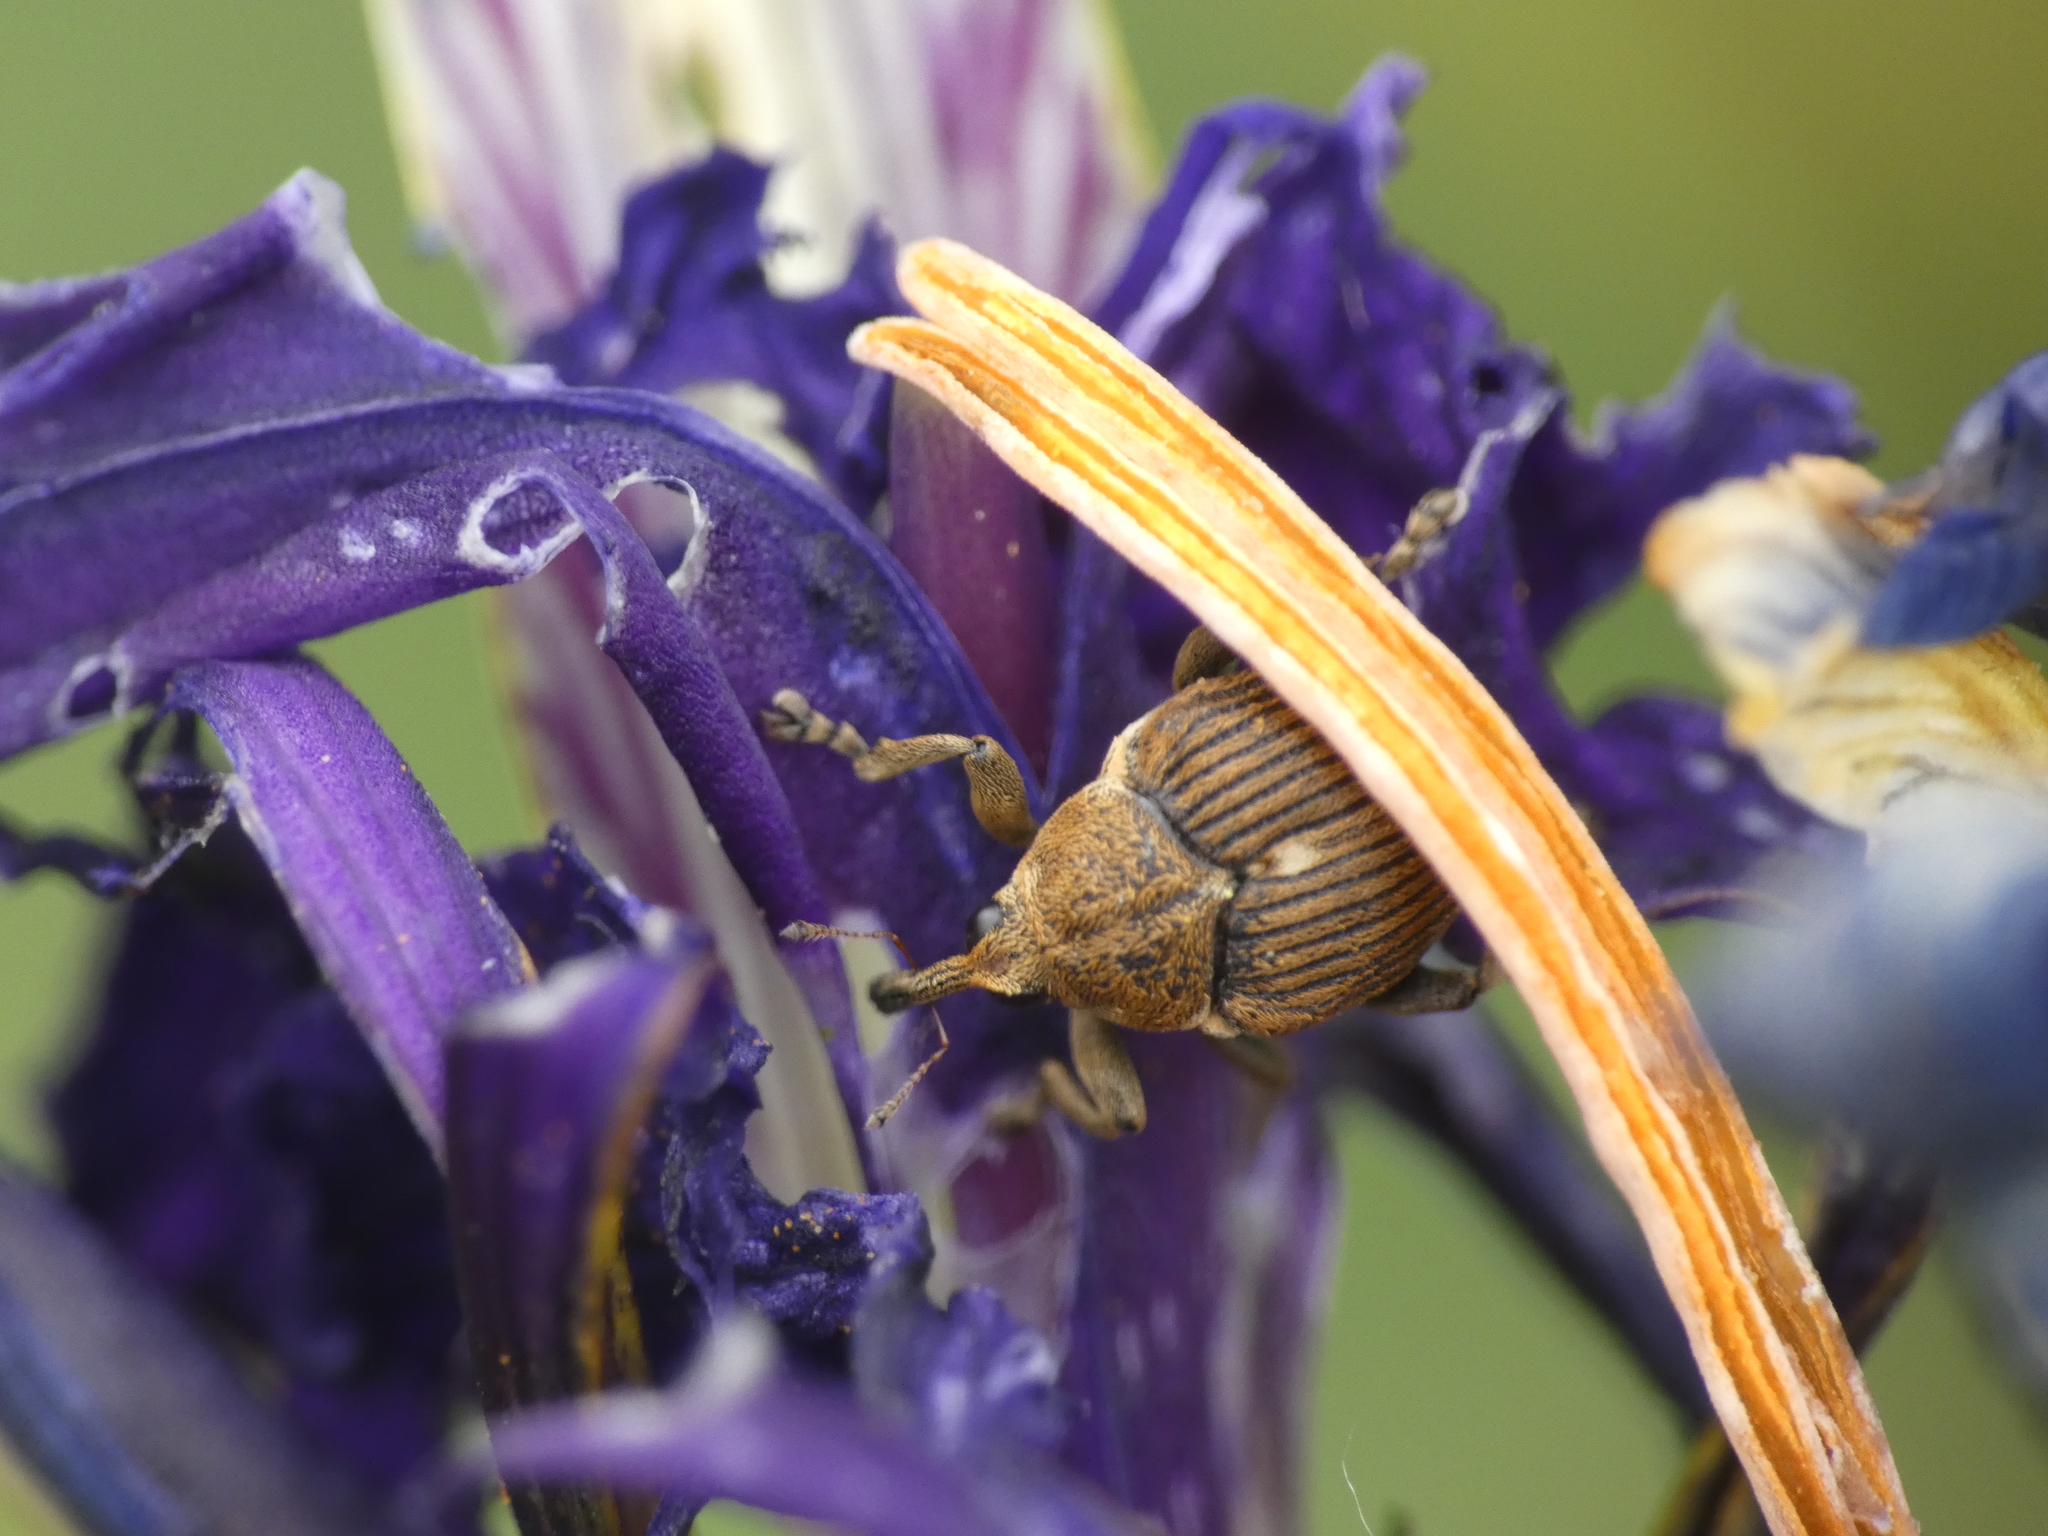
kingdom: Animalia
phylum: Arthropoda
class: Insecta
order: Coleoptera
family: Curculionidae
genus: Mononychus
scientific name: Mononychus punctumalbum
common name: Iris weevil
